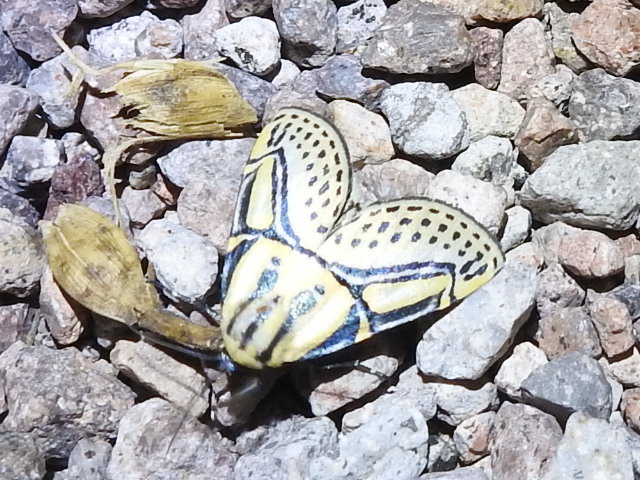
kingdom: Animalia
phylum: Arthropoda
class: Insecta
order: Lepidoptera
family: Erebidae
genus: Diphthera
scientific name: Diphthera festiva
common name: Hieroglyphic moth
